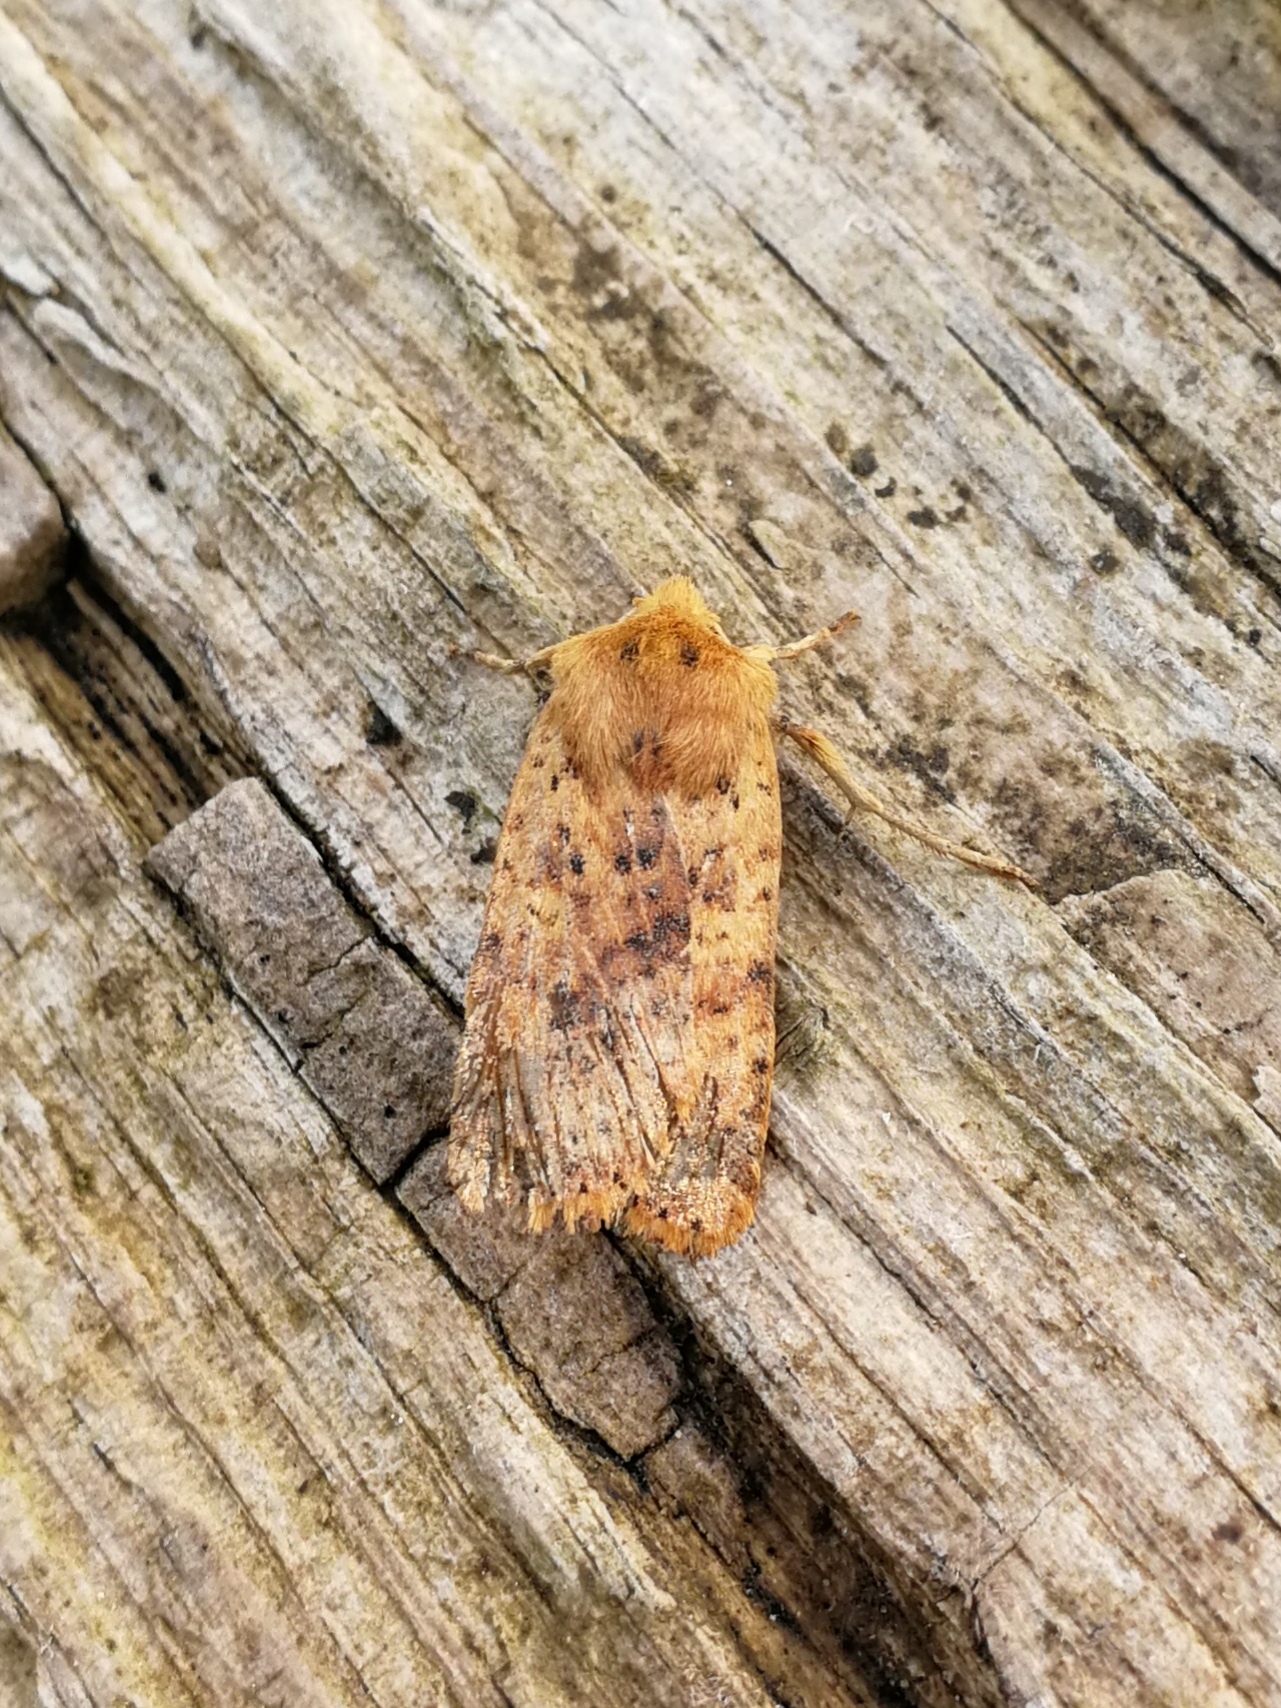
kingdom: Animalia
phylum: Arthropoda
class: Insecta
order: Lepidoptera
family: Noctuidae
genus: Conistra
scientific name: Conistra rubiginea
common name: Dotted chestnut
